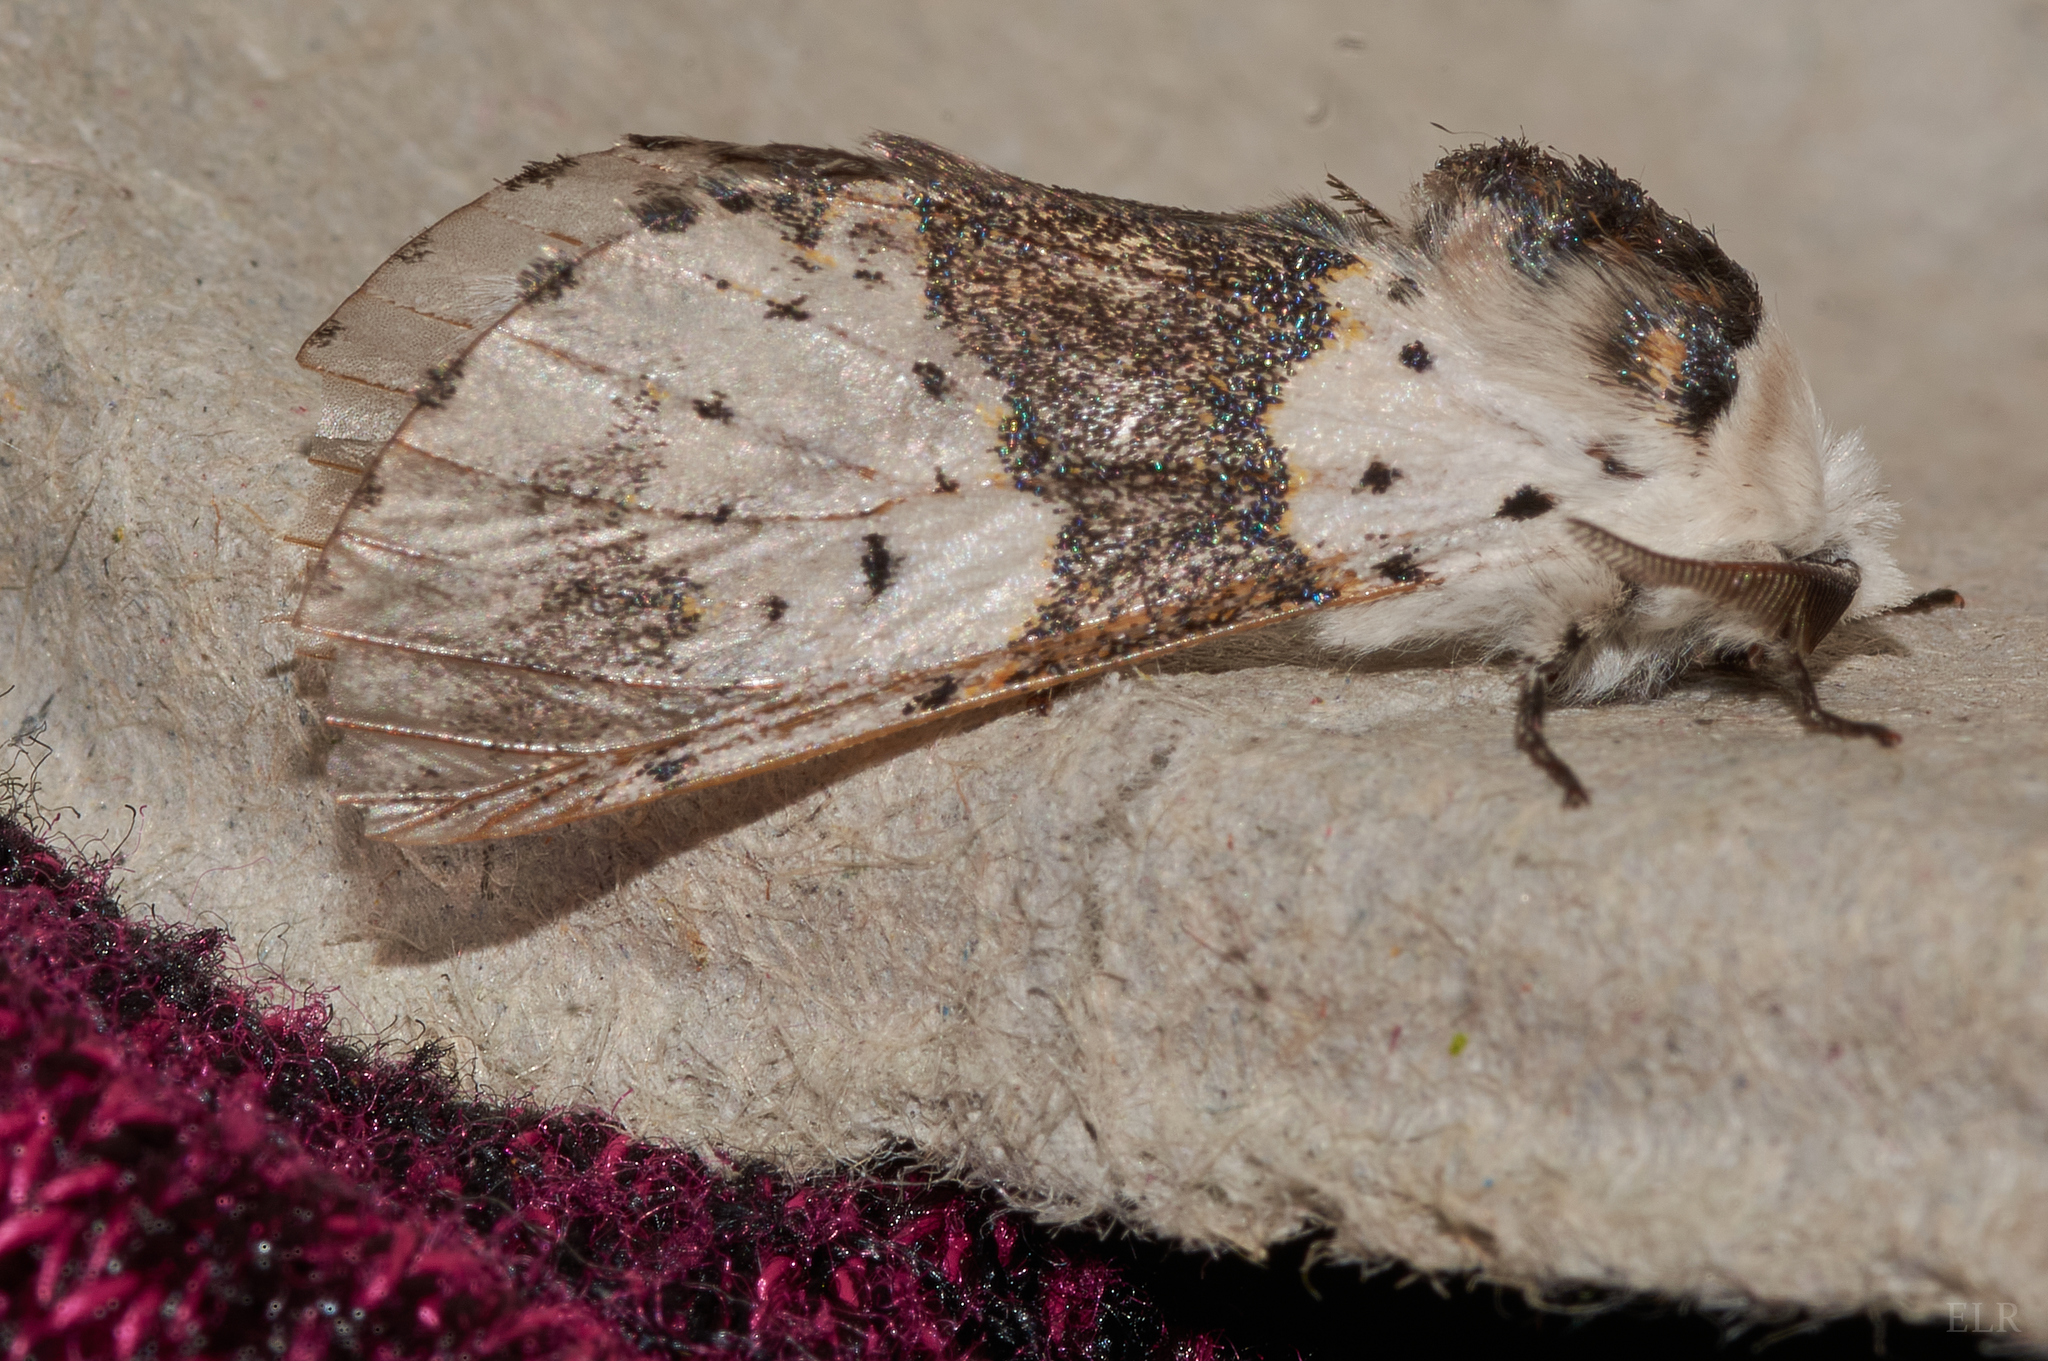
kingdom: Animalia
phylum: Arthropoda
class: Insecta
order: Lepidoptera
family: Notodontidae
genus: Furcula
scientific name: Furcula borealis
